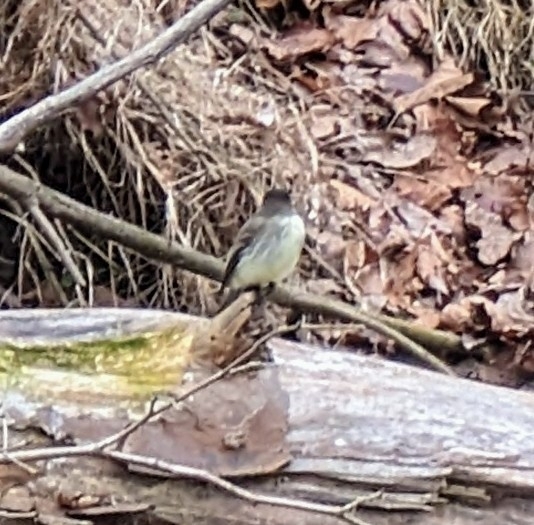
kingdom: Animalia
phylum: Chordata
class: Aves
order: Passeriformes
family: Tyrannidae
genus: Sayornis
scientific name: Sayornis phoebe
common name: Eastern phoebe
